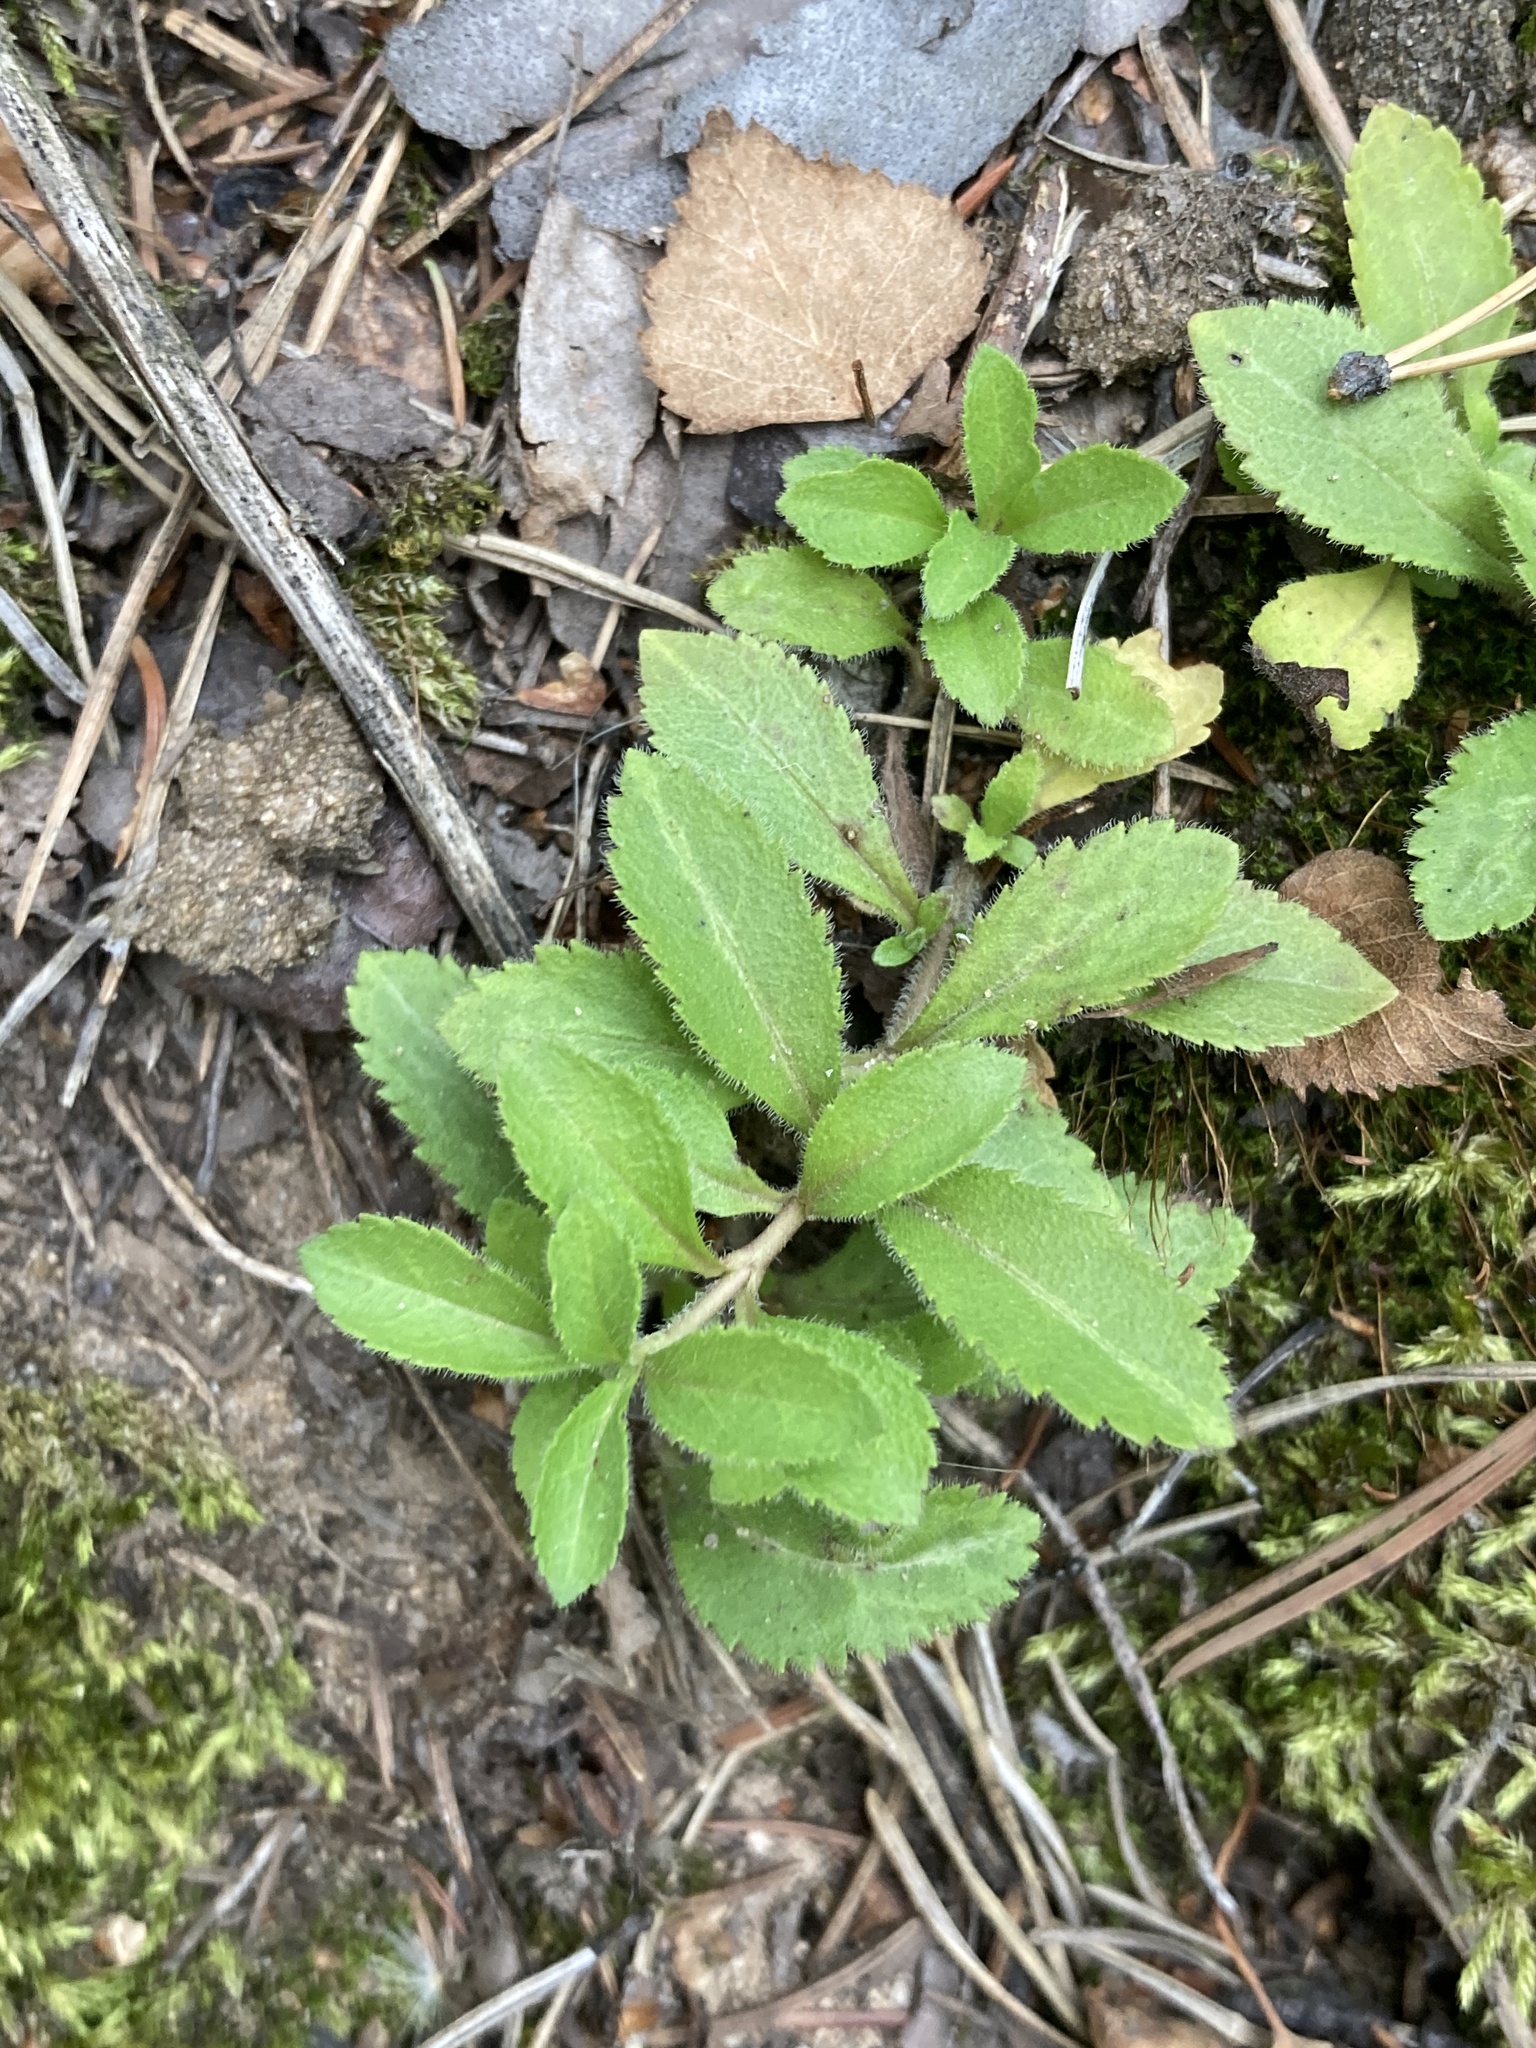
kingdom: Plantae
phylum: Tracheophyta
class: Magnoliopsida
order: Lamiales
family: Plantaginaceae
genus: Veronica
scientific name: Veronica officinalis
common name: Common speedwell
